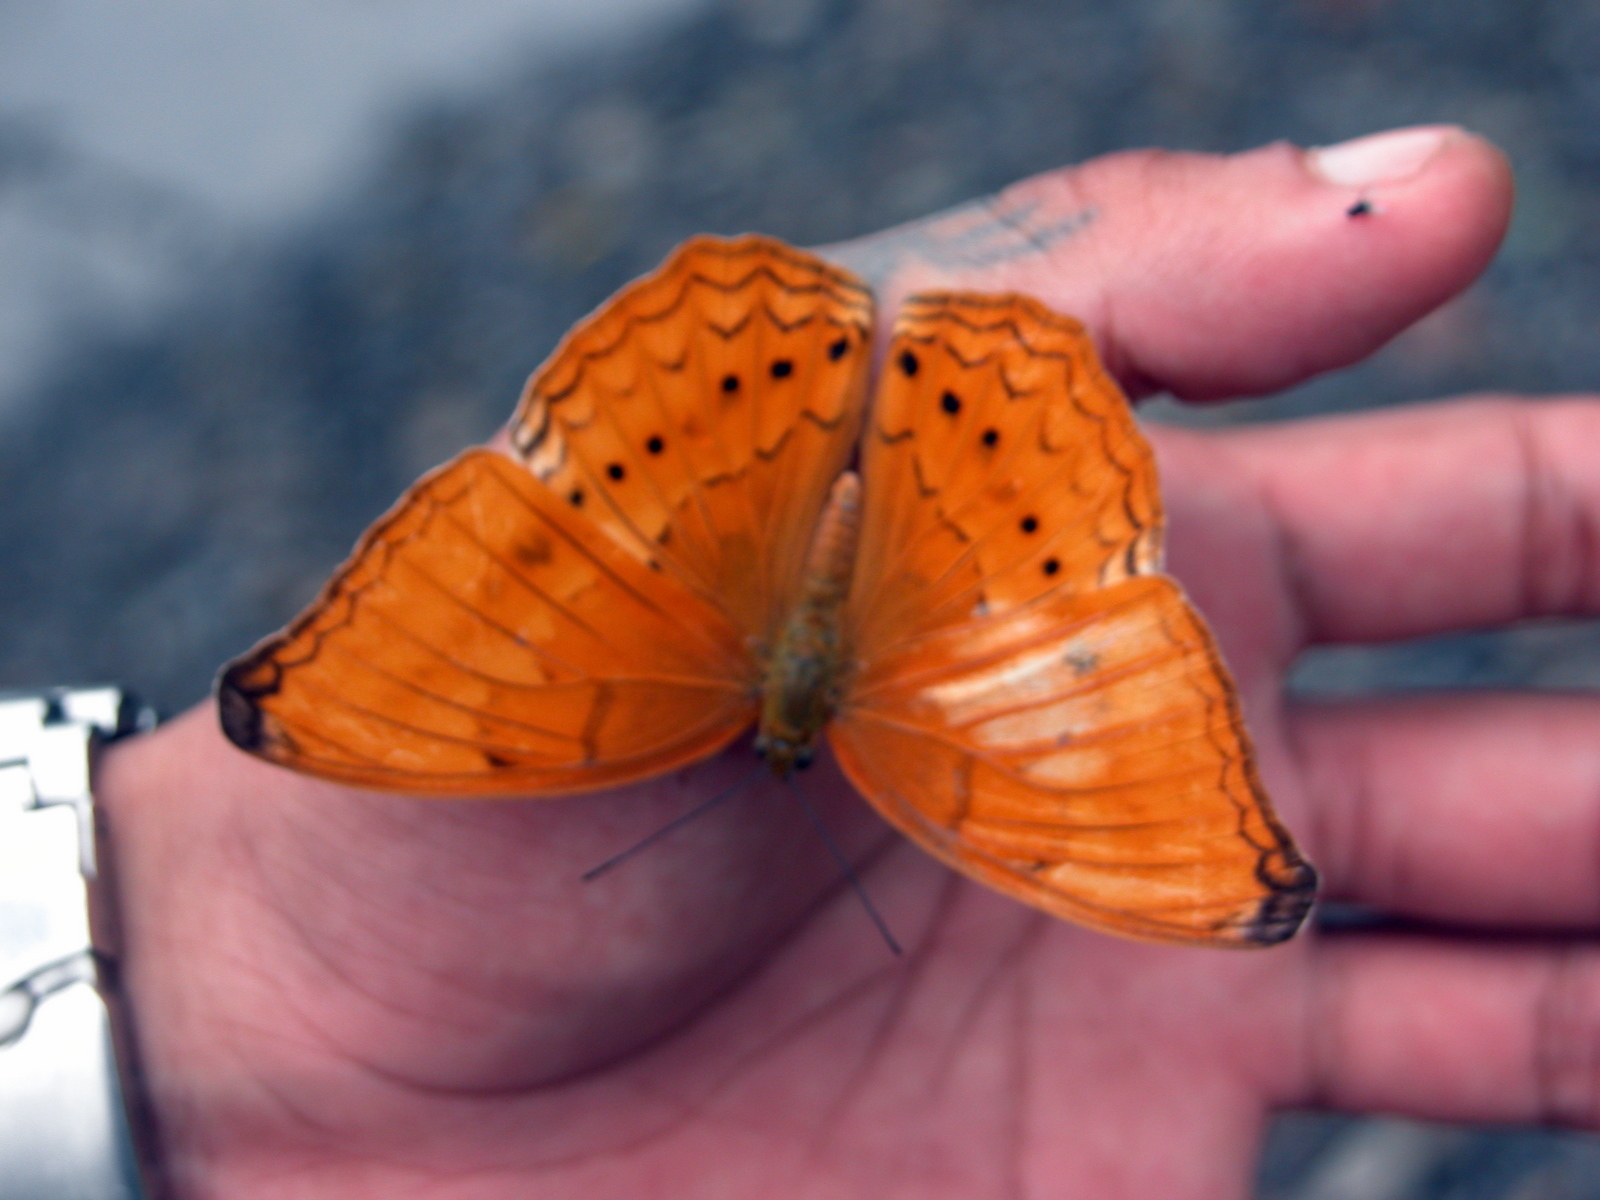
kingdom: Animalia
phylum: Arthropoda
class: Insecta
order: Lepidoptera
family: Nymphalidae
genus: Cirrochroa
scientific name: Cirrochroa aoris
